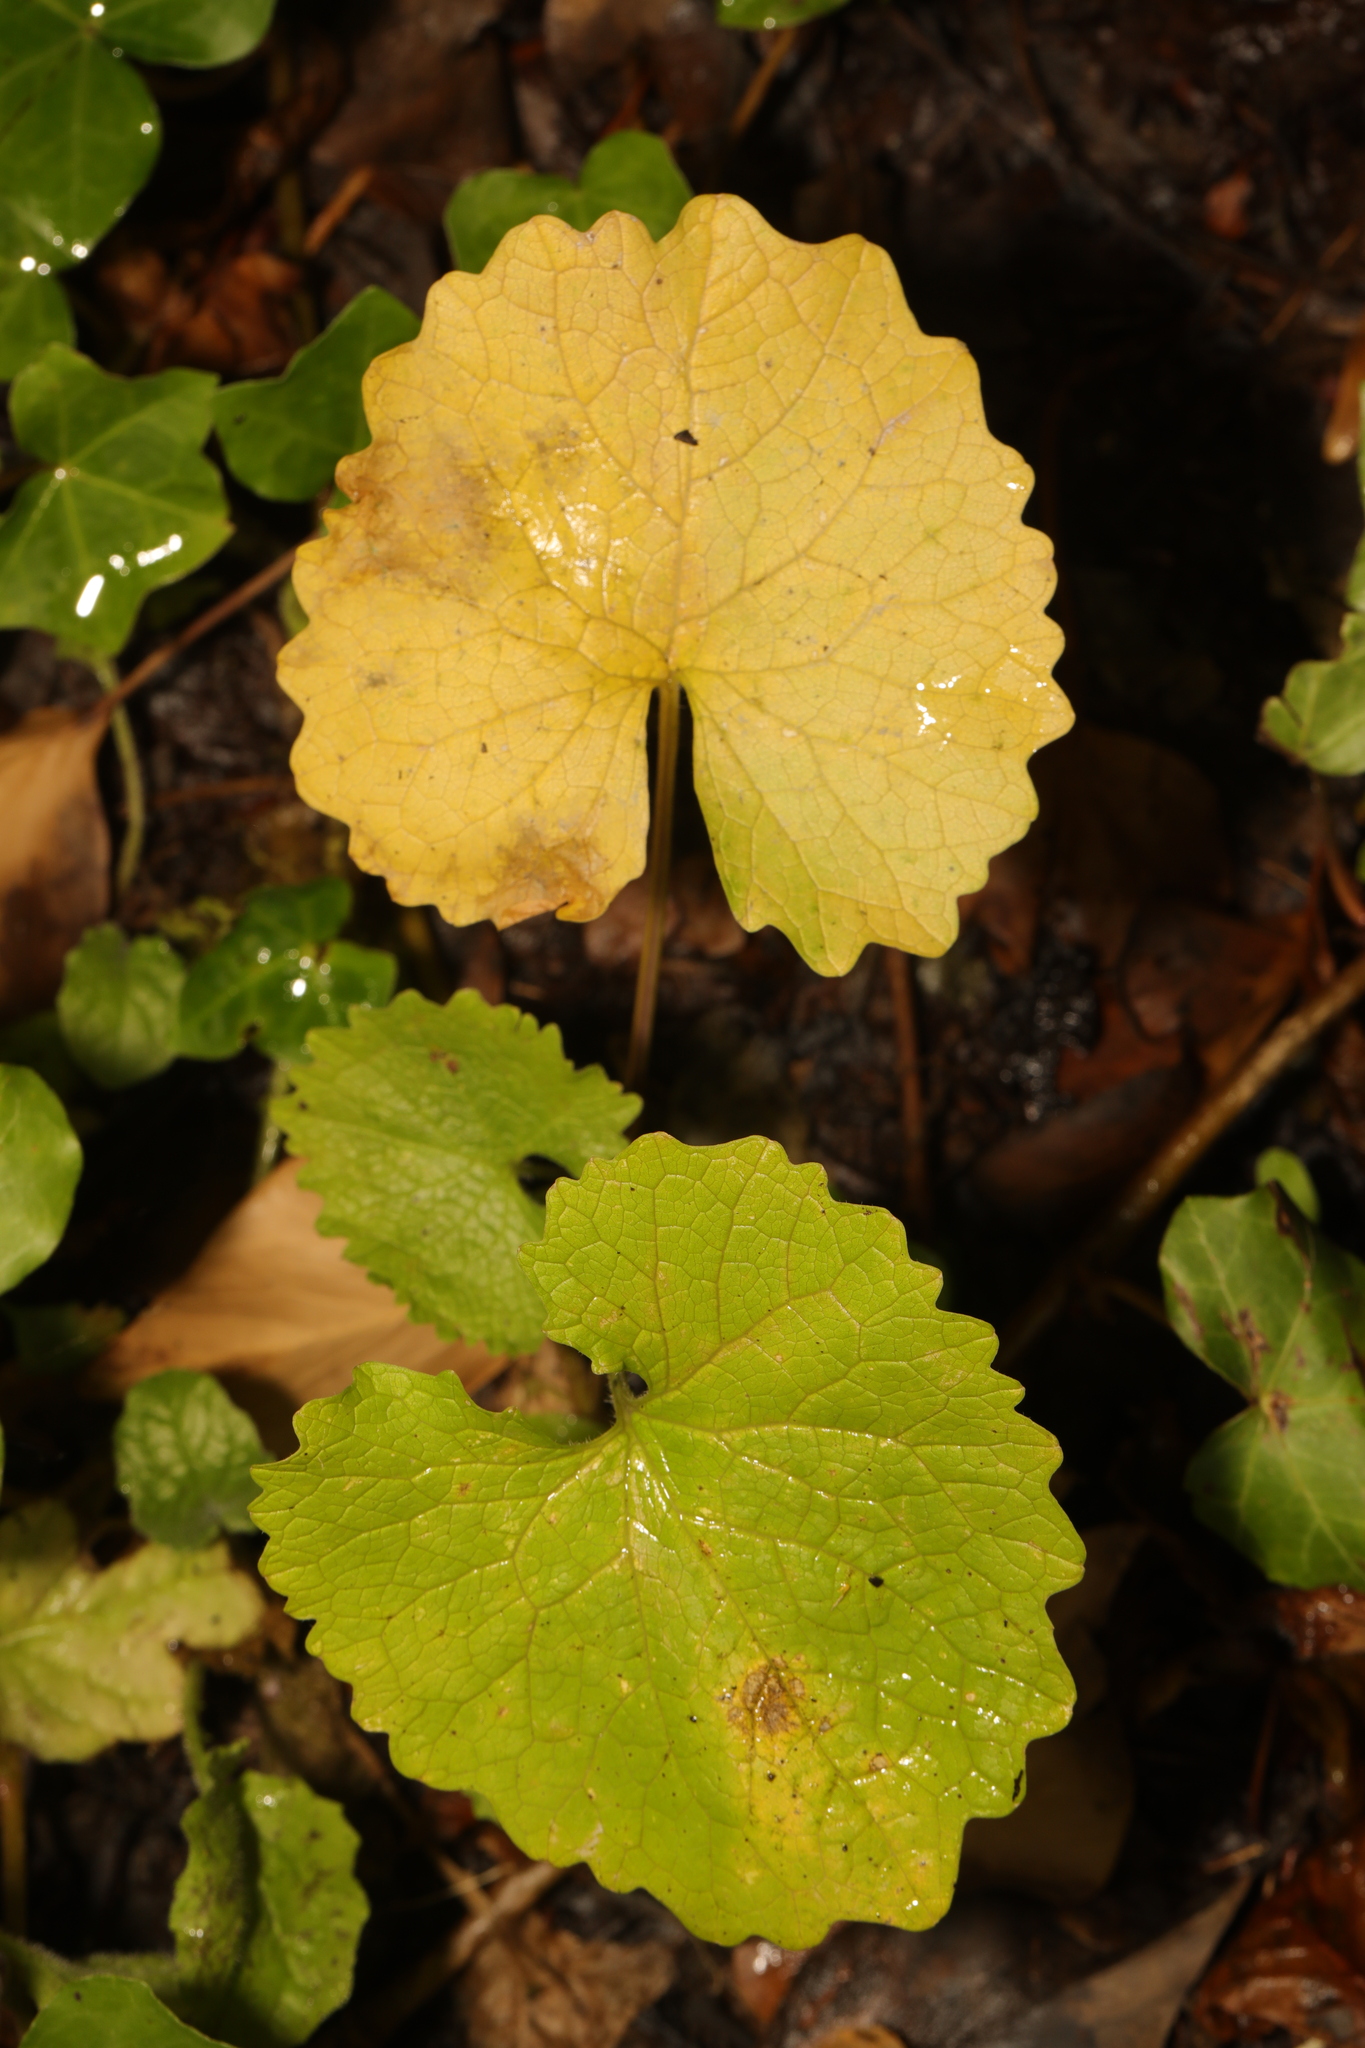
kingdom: Plantae
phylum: Tracheophyta
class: Magnoliopsida
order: Brassicales
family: Brassicaceae
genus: Alliaria
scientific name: Alliaria petiolata
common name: Garlic mustard
